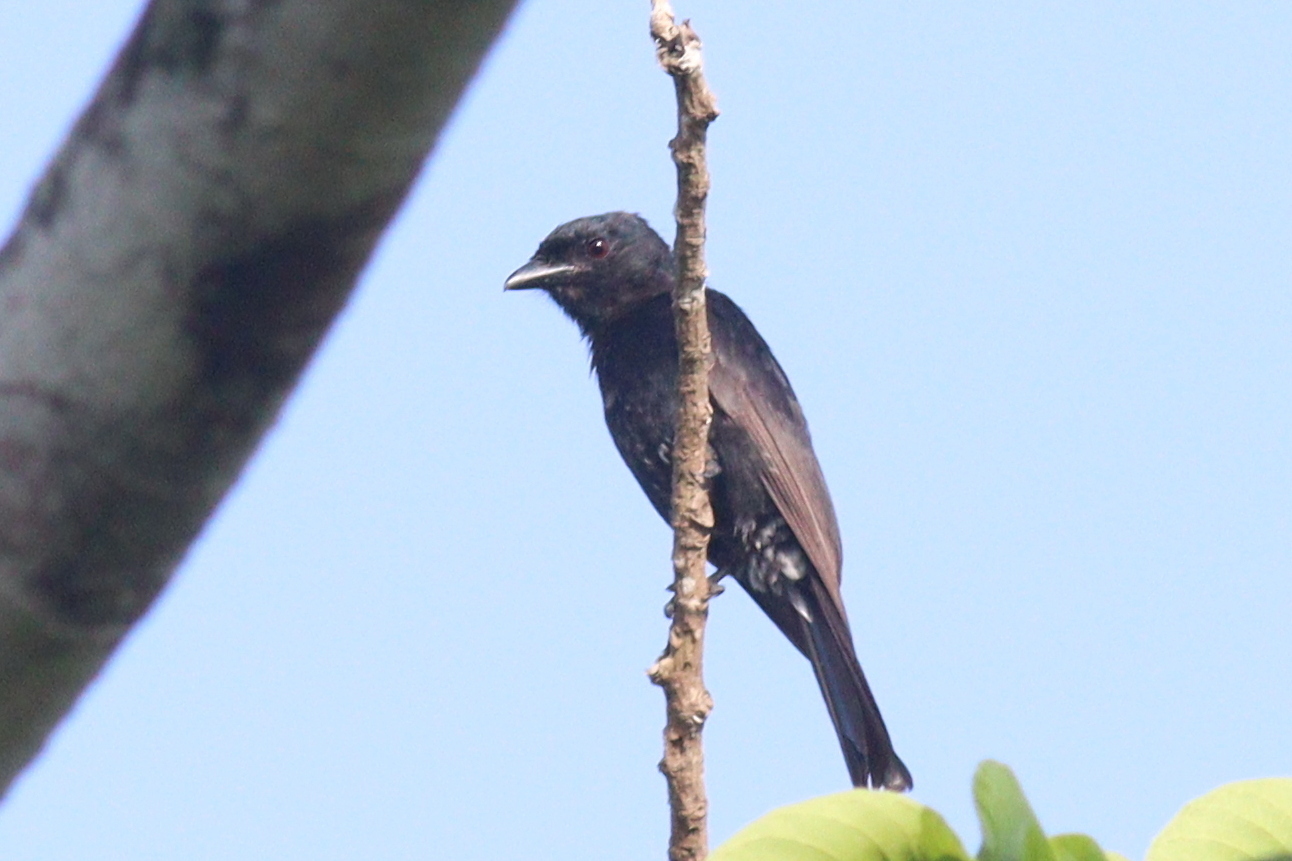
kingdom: Animalia
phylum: Chordata
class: Aves
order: Passeriformes
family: Dicruridae
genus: Dicrurus
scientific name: Dicrurus adsimilis
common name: Fork-tailed drongo
